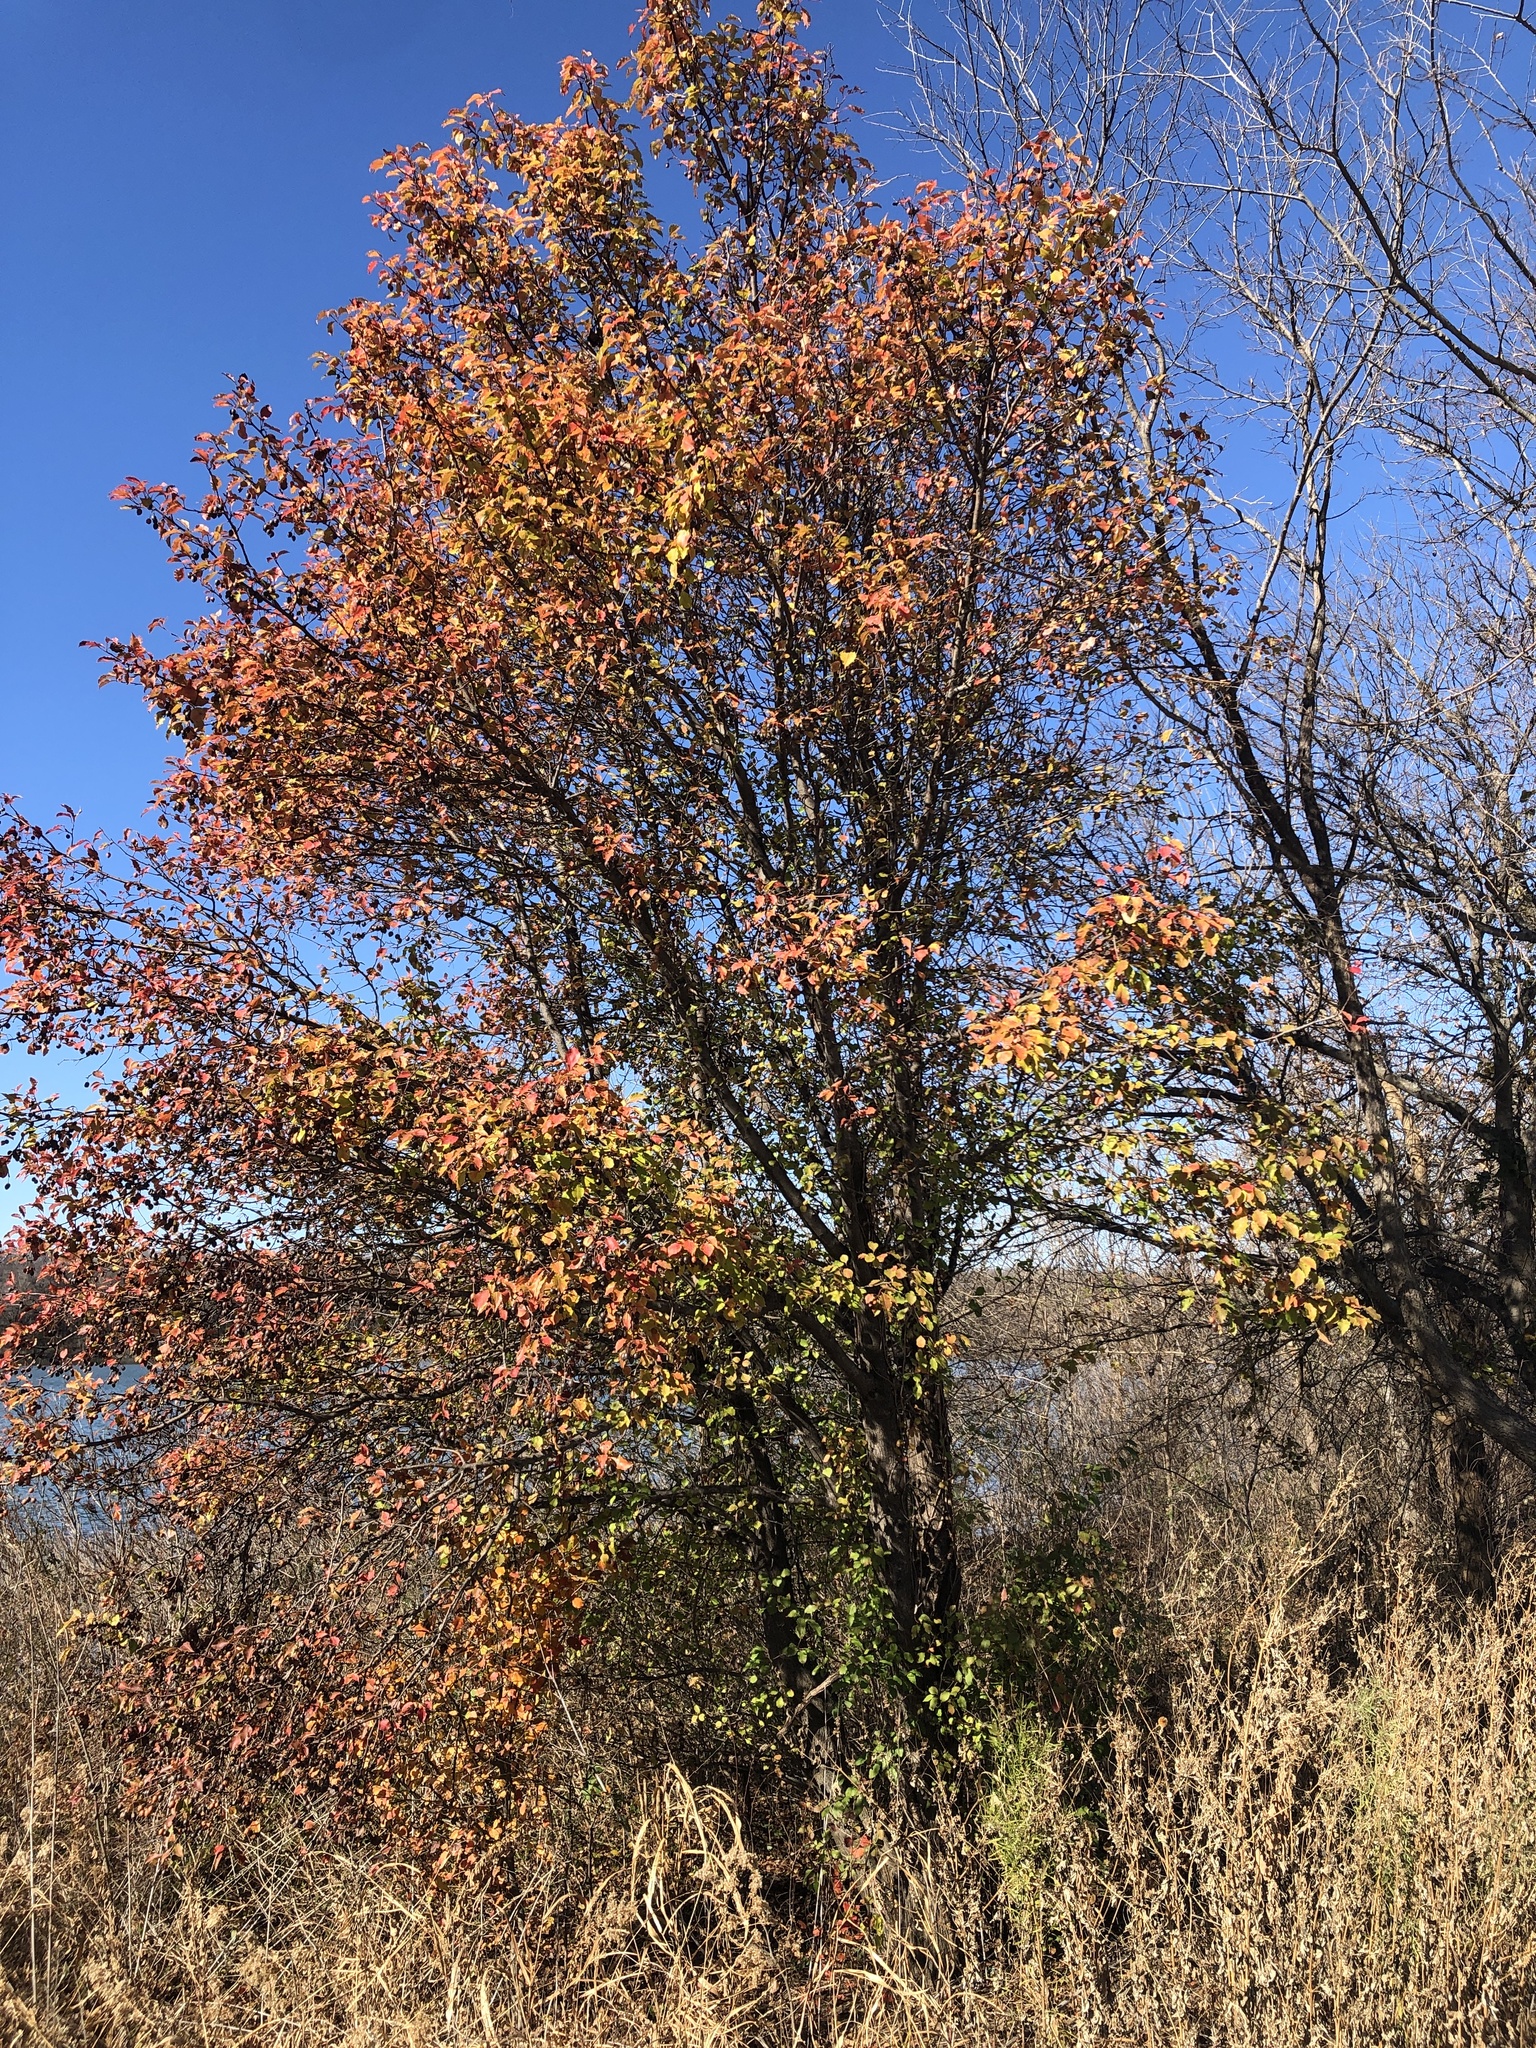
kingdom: Plantae
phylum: Tracheophyta
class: Magnoliopsida
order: Rosales
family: Rosaceae
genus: Pyrus
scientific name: Pyrus calleryana
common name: Callery pear
